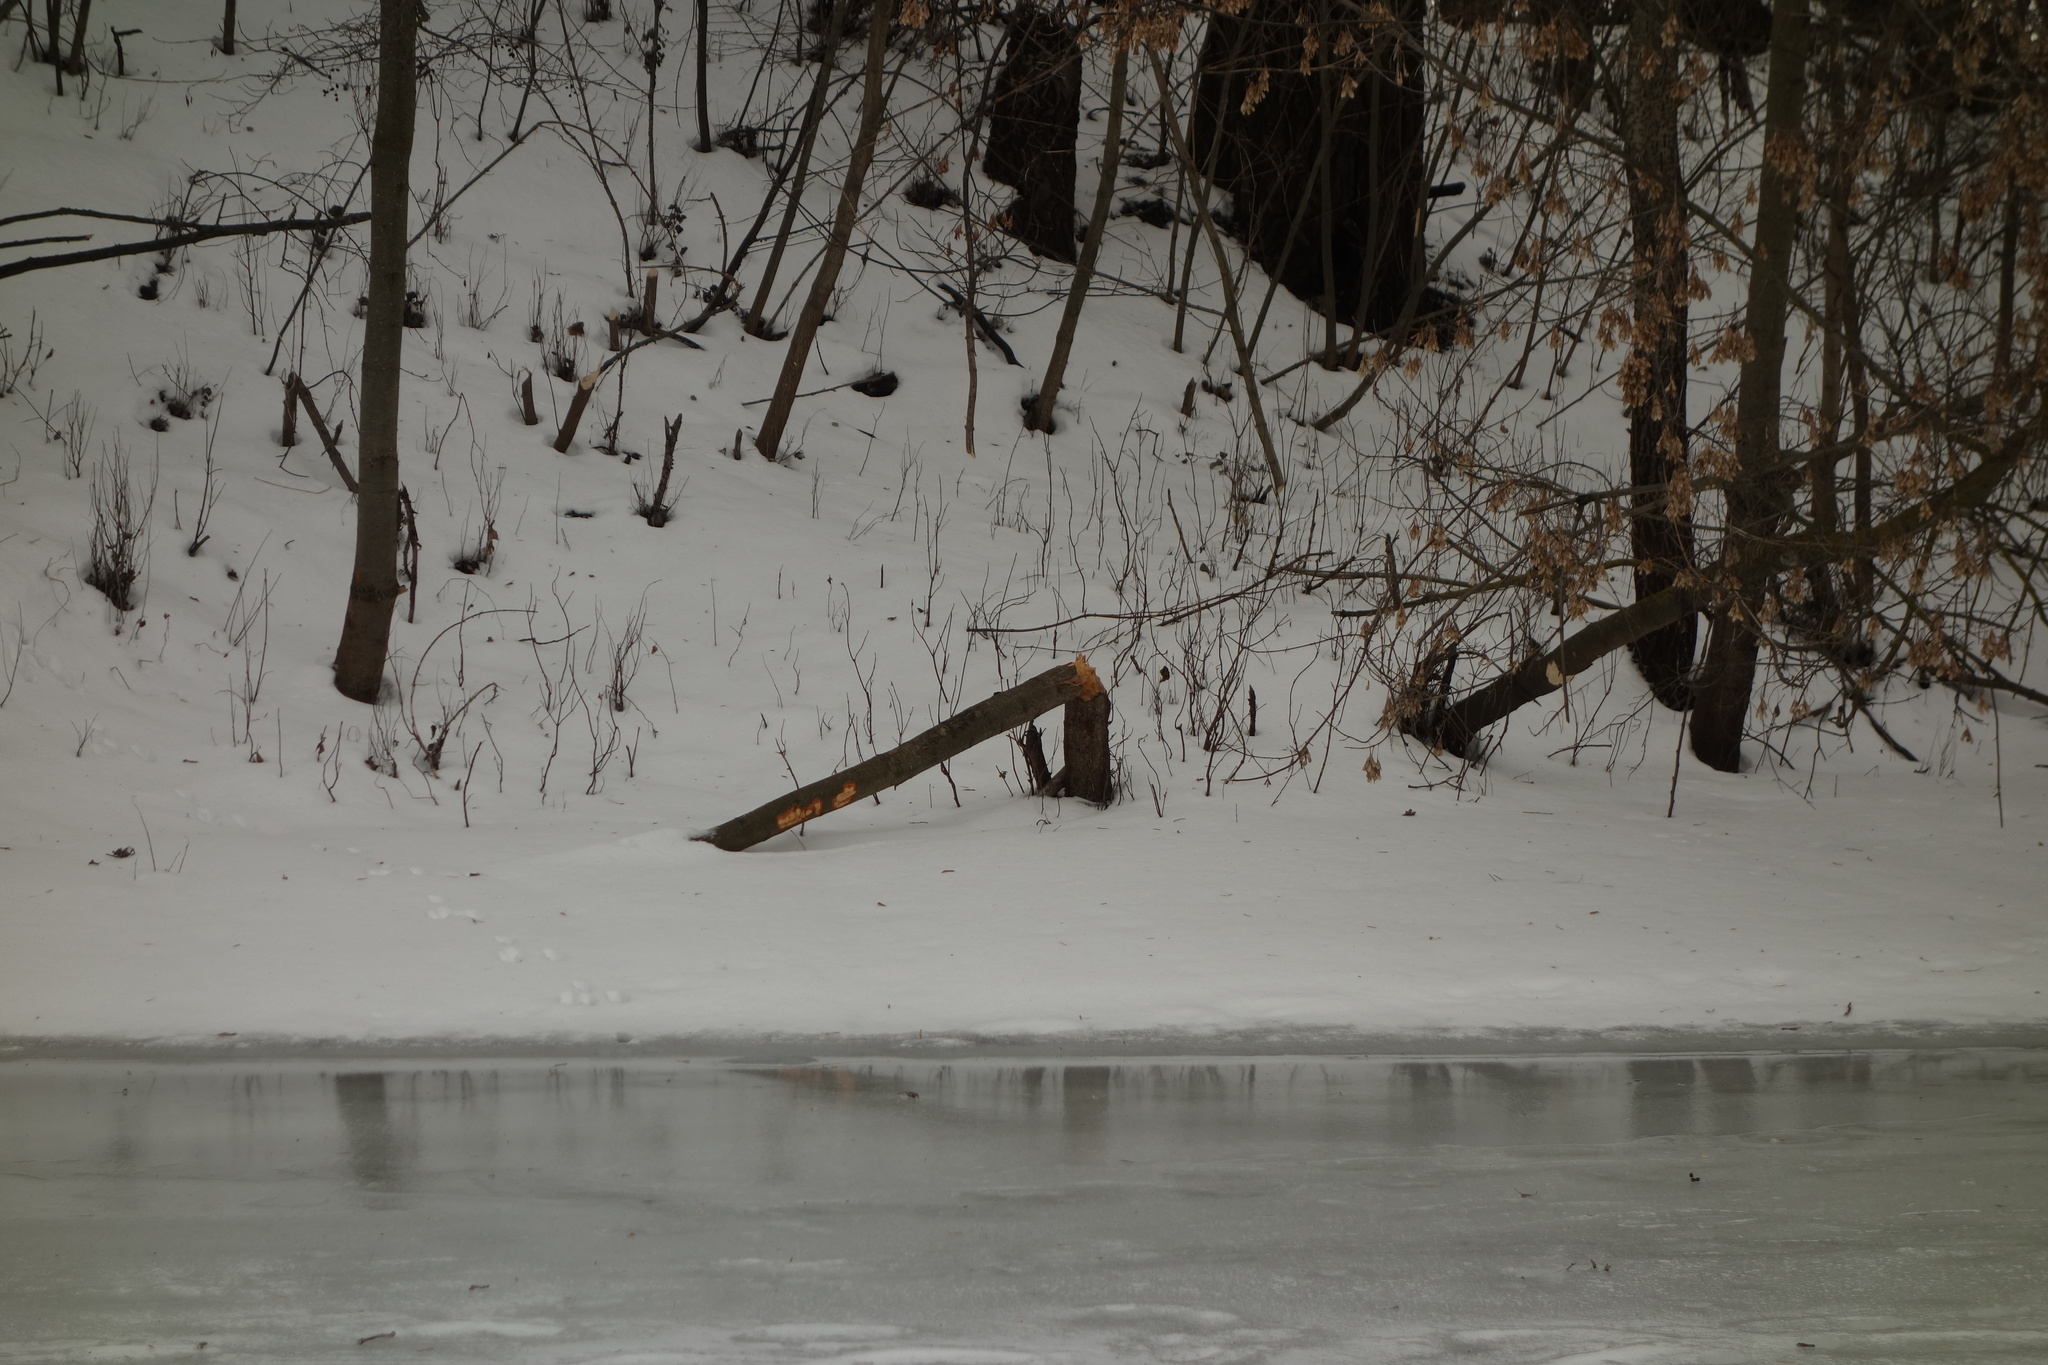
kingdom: Animalia
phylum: Chordata
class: Mammalia
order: Rodentia
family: Castoridae
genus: Castor
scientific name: Castor fiber
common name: Eurasian beaver
